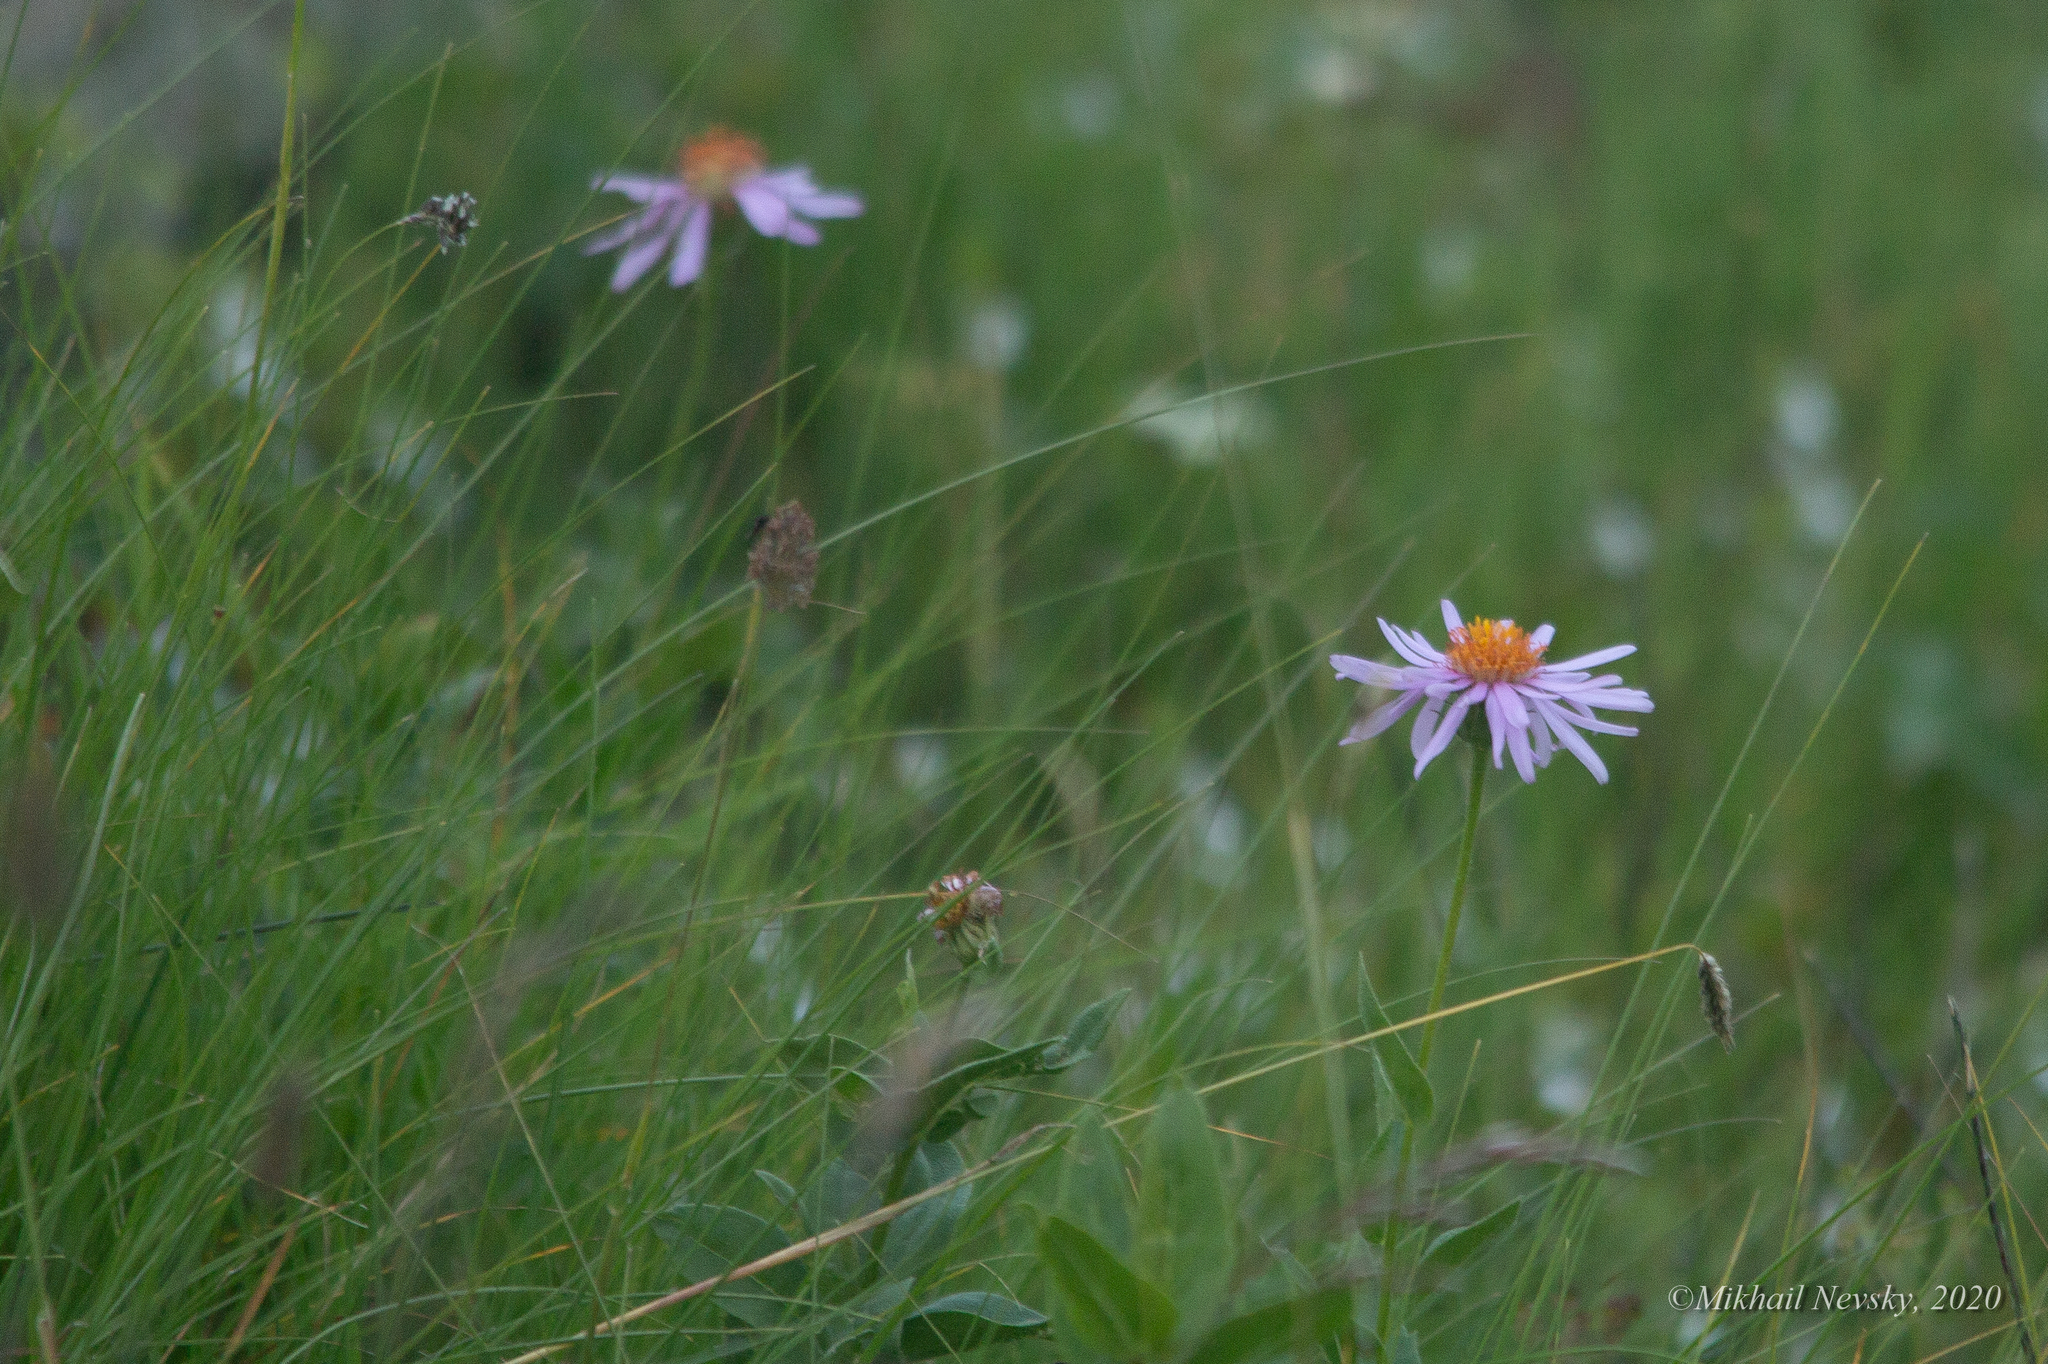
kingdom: Plantae
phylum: Tracheophyta
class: Magnoliopsida
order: Asterales
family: Asteraceae
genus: Aster
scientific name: Aster alpinus
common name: Alpine aster
